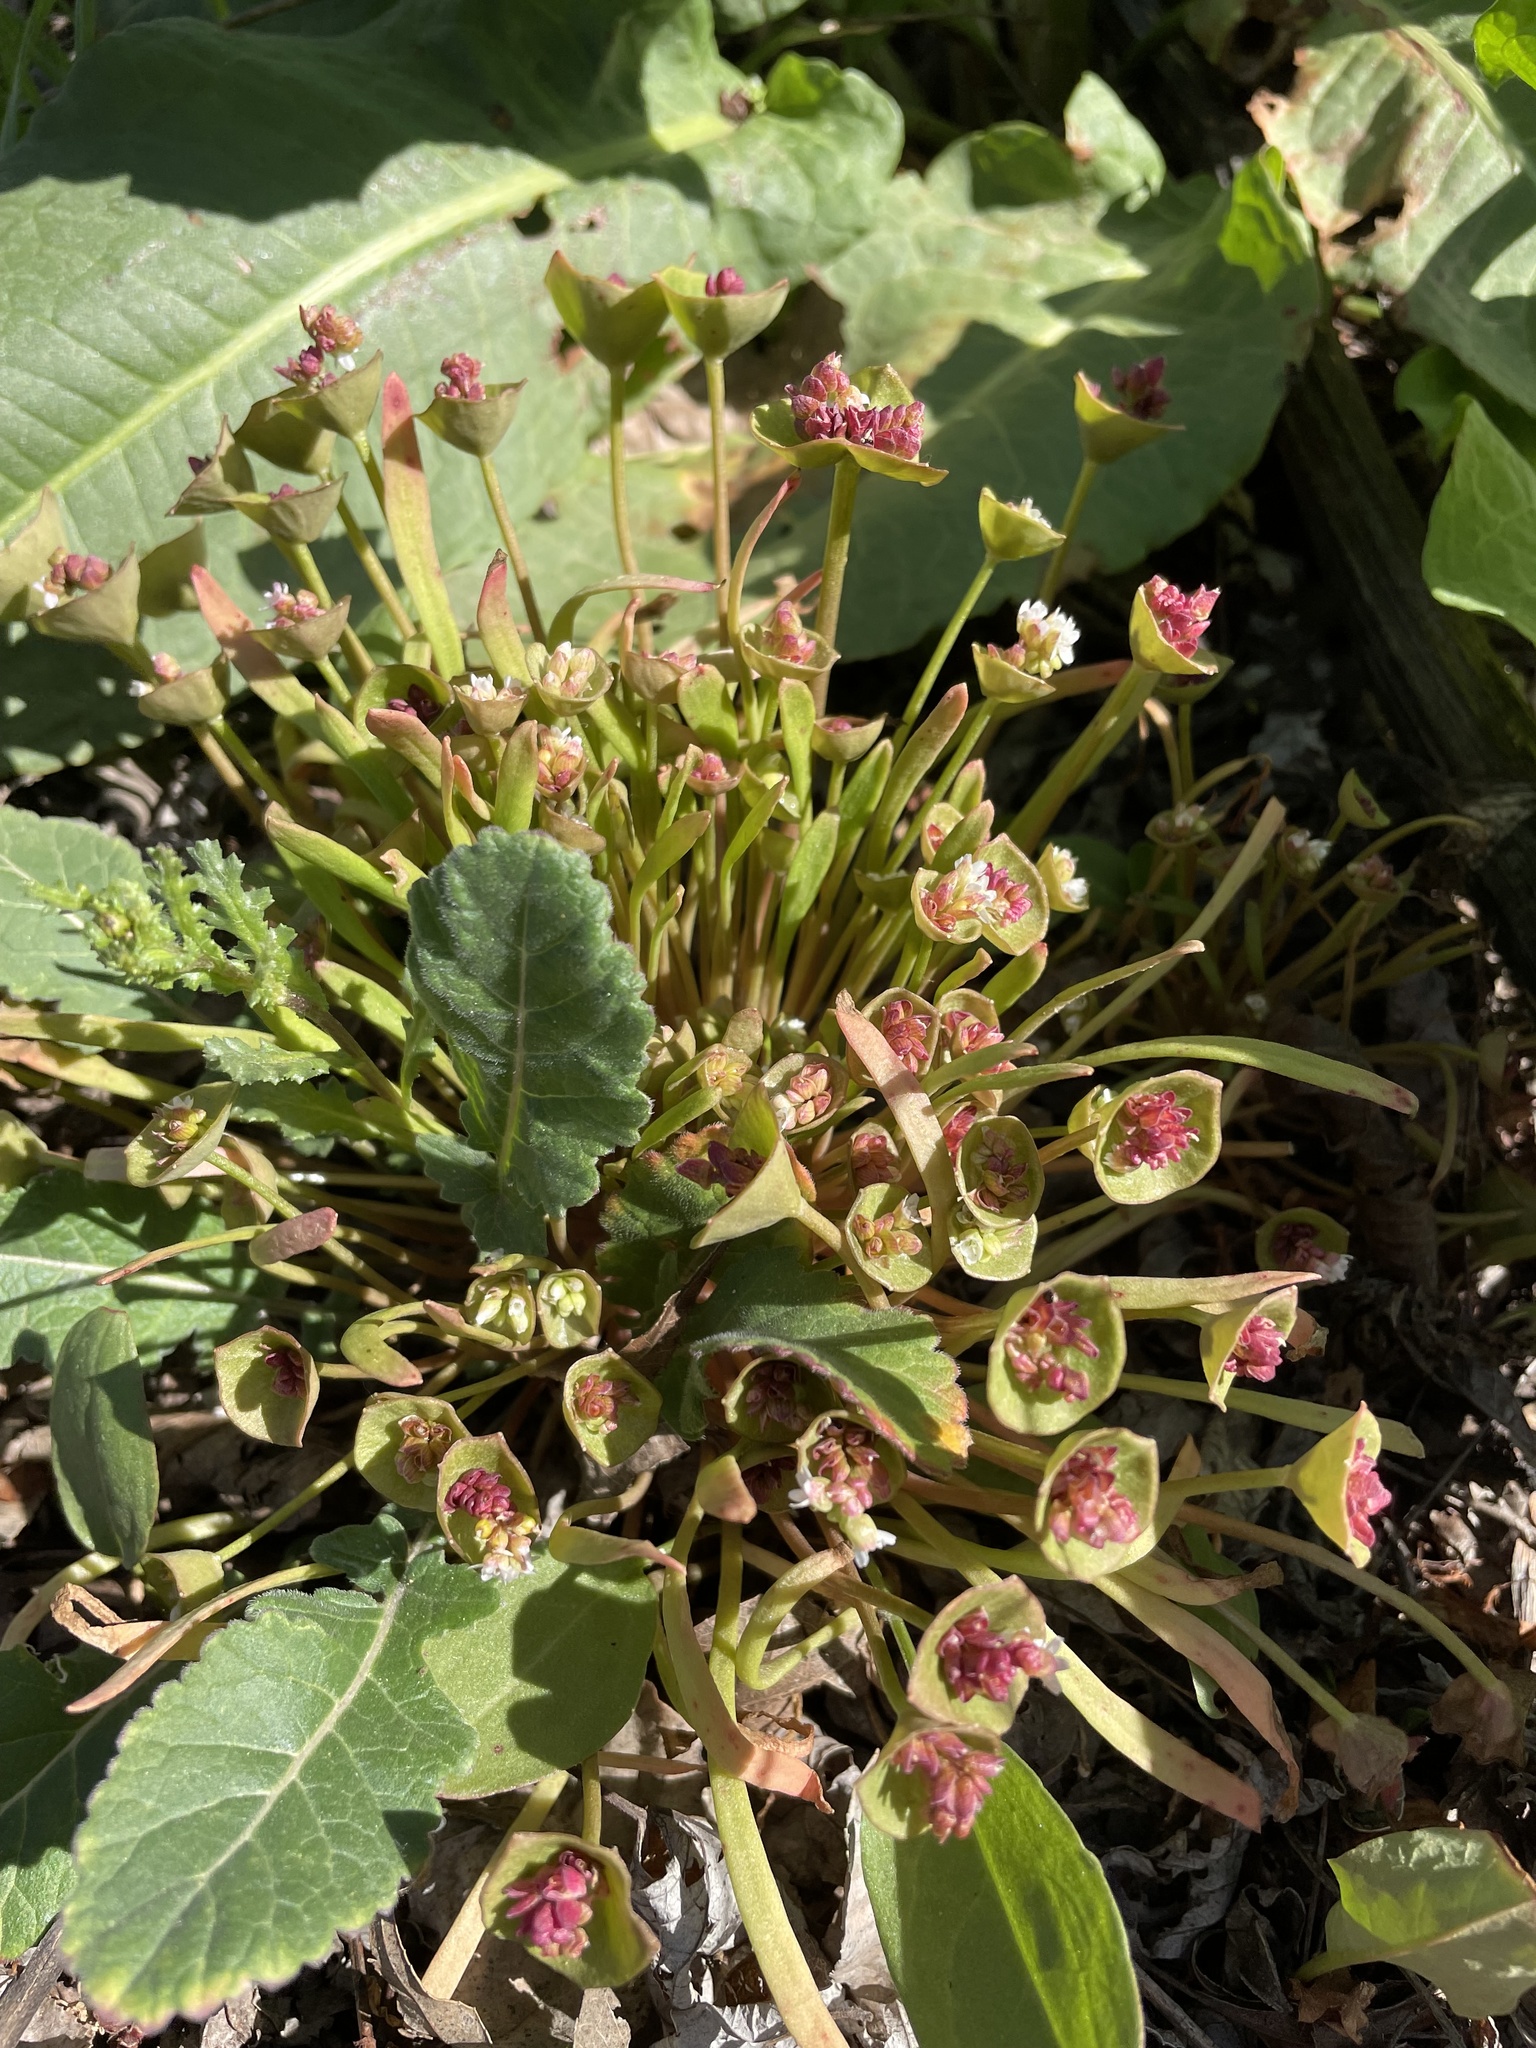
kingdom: Plantae
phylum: Tracheophyta
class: Magnoliopsida
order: Caryophyllales
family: Montiaceae
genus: Claytonia
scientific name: Claytonia parviflora
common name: Indian-lettuce
